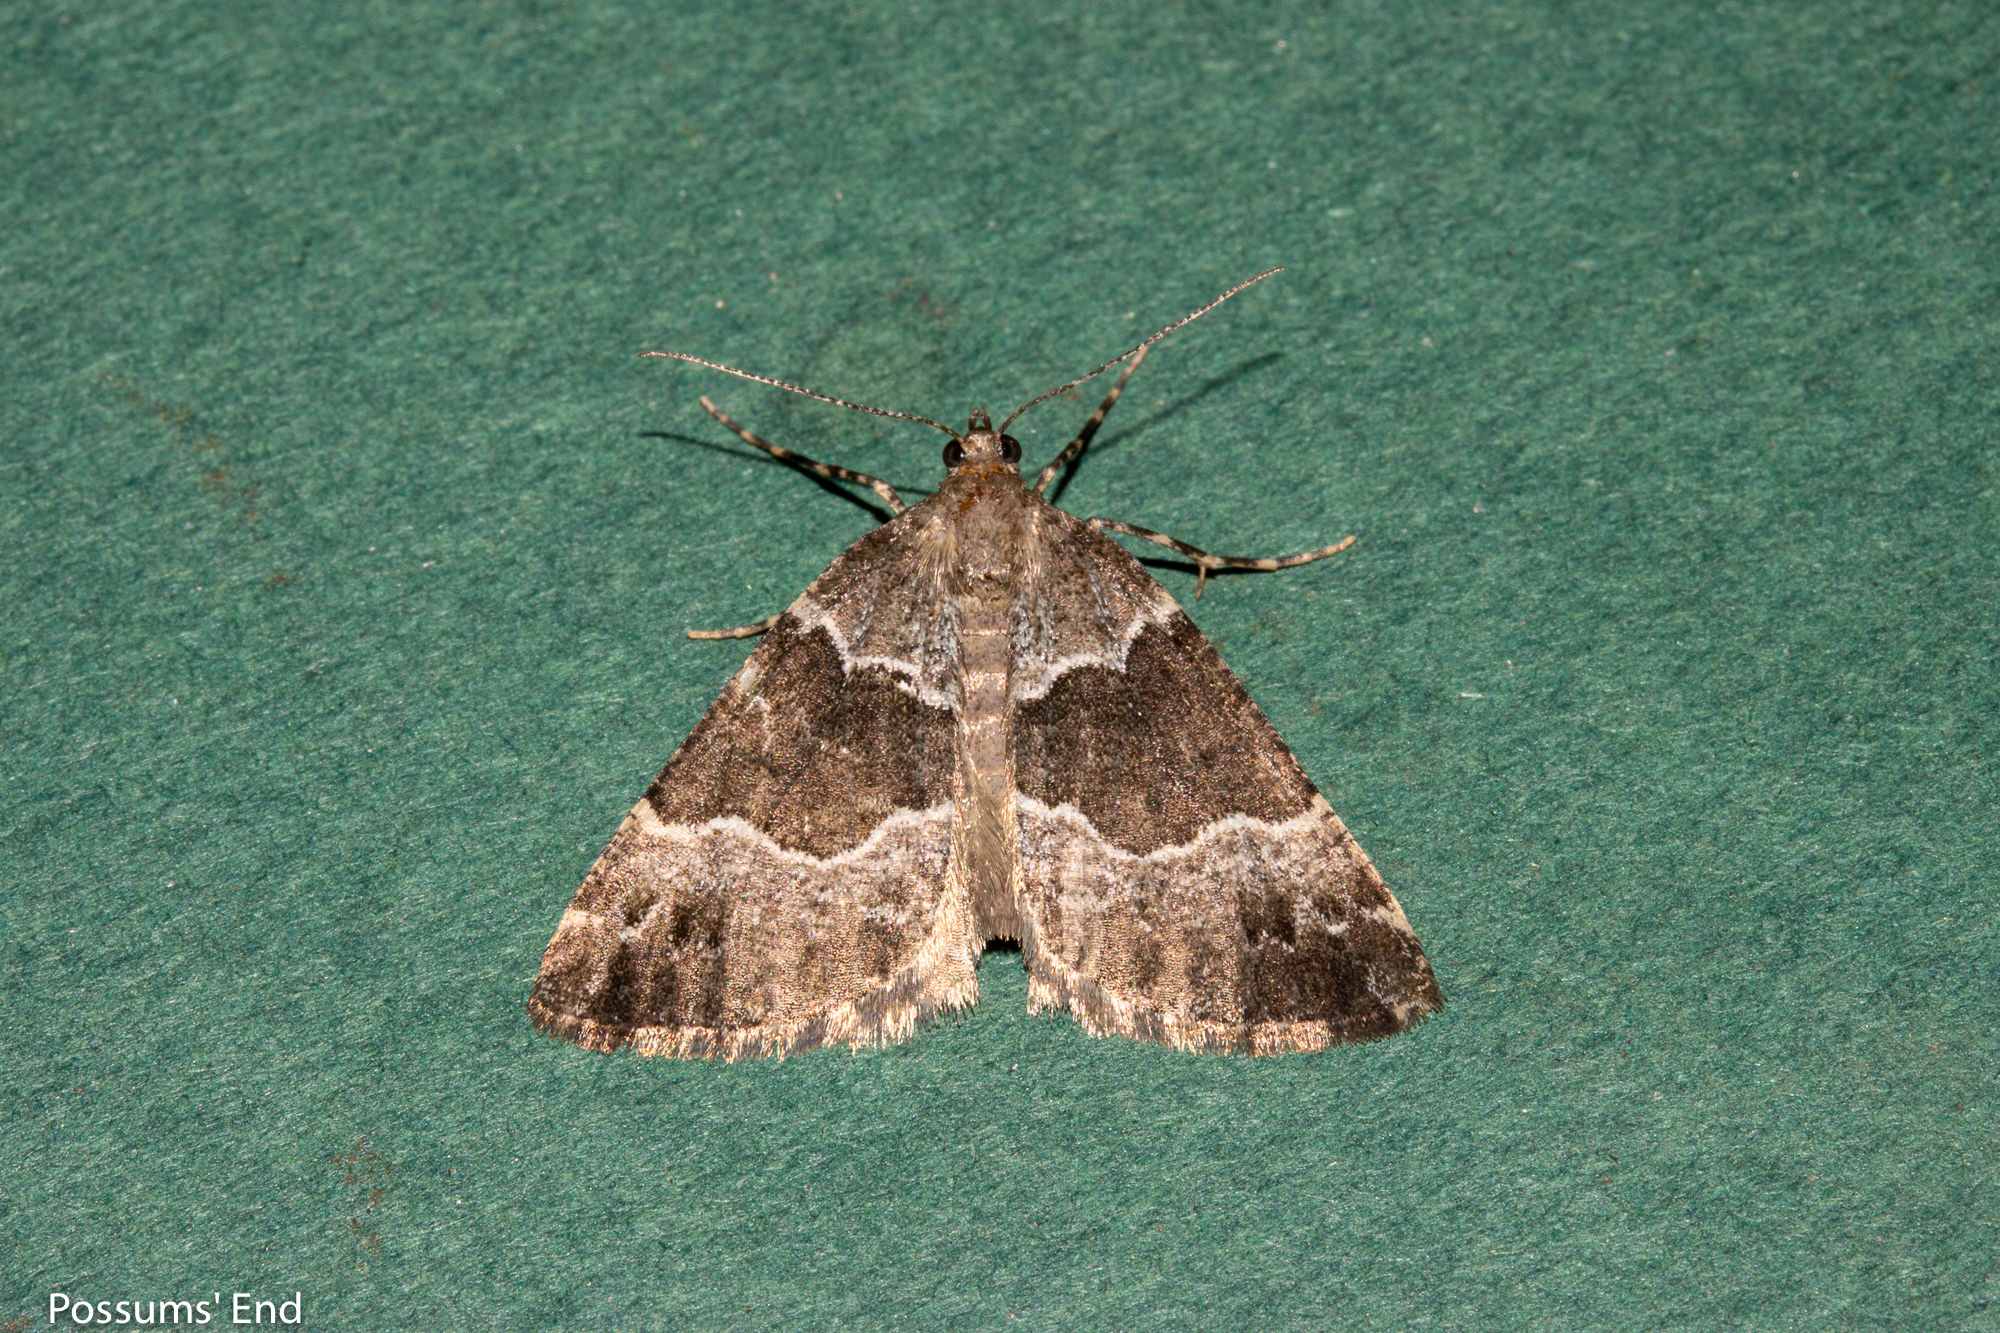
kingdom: Animalia
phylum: Arthropoda
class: Insecta
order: Lepidoptera
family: Geometridae
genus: Pseudocoremia
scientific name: Pseudocoremia
